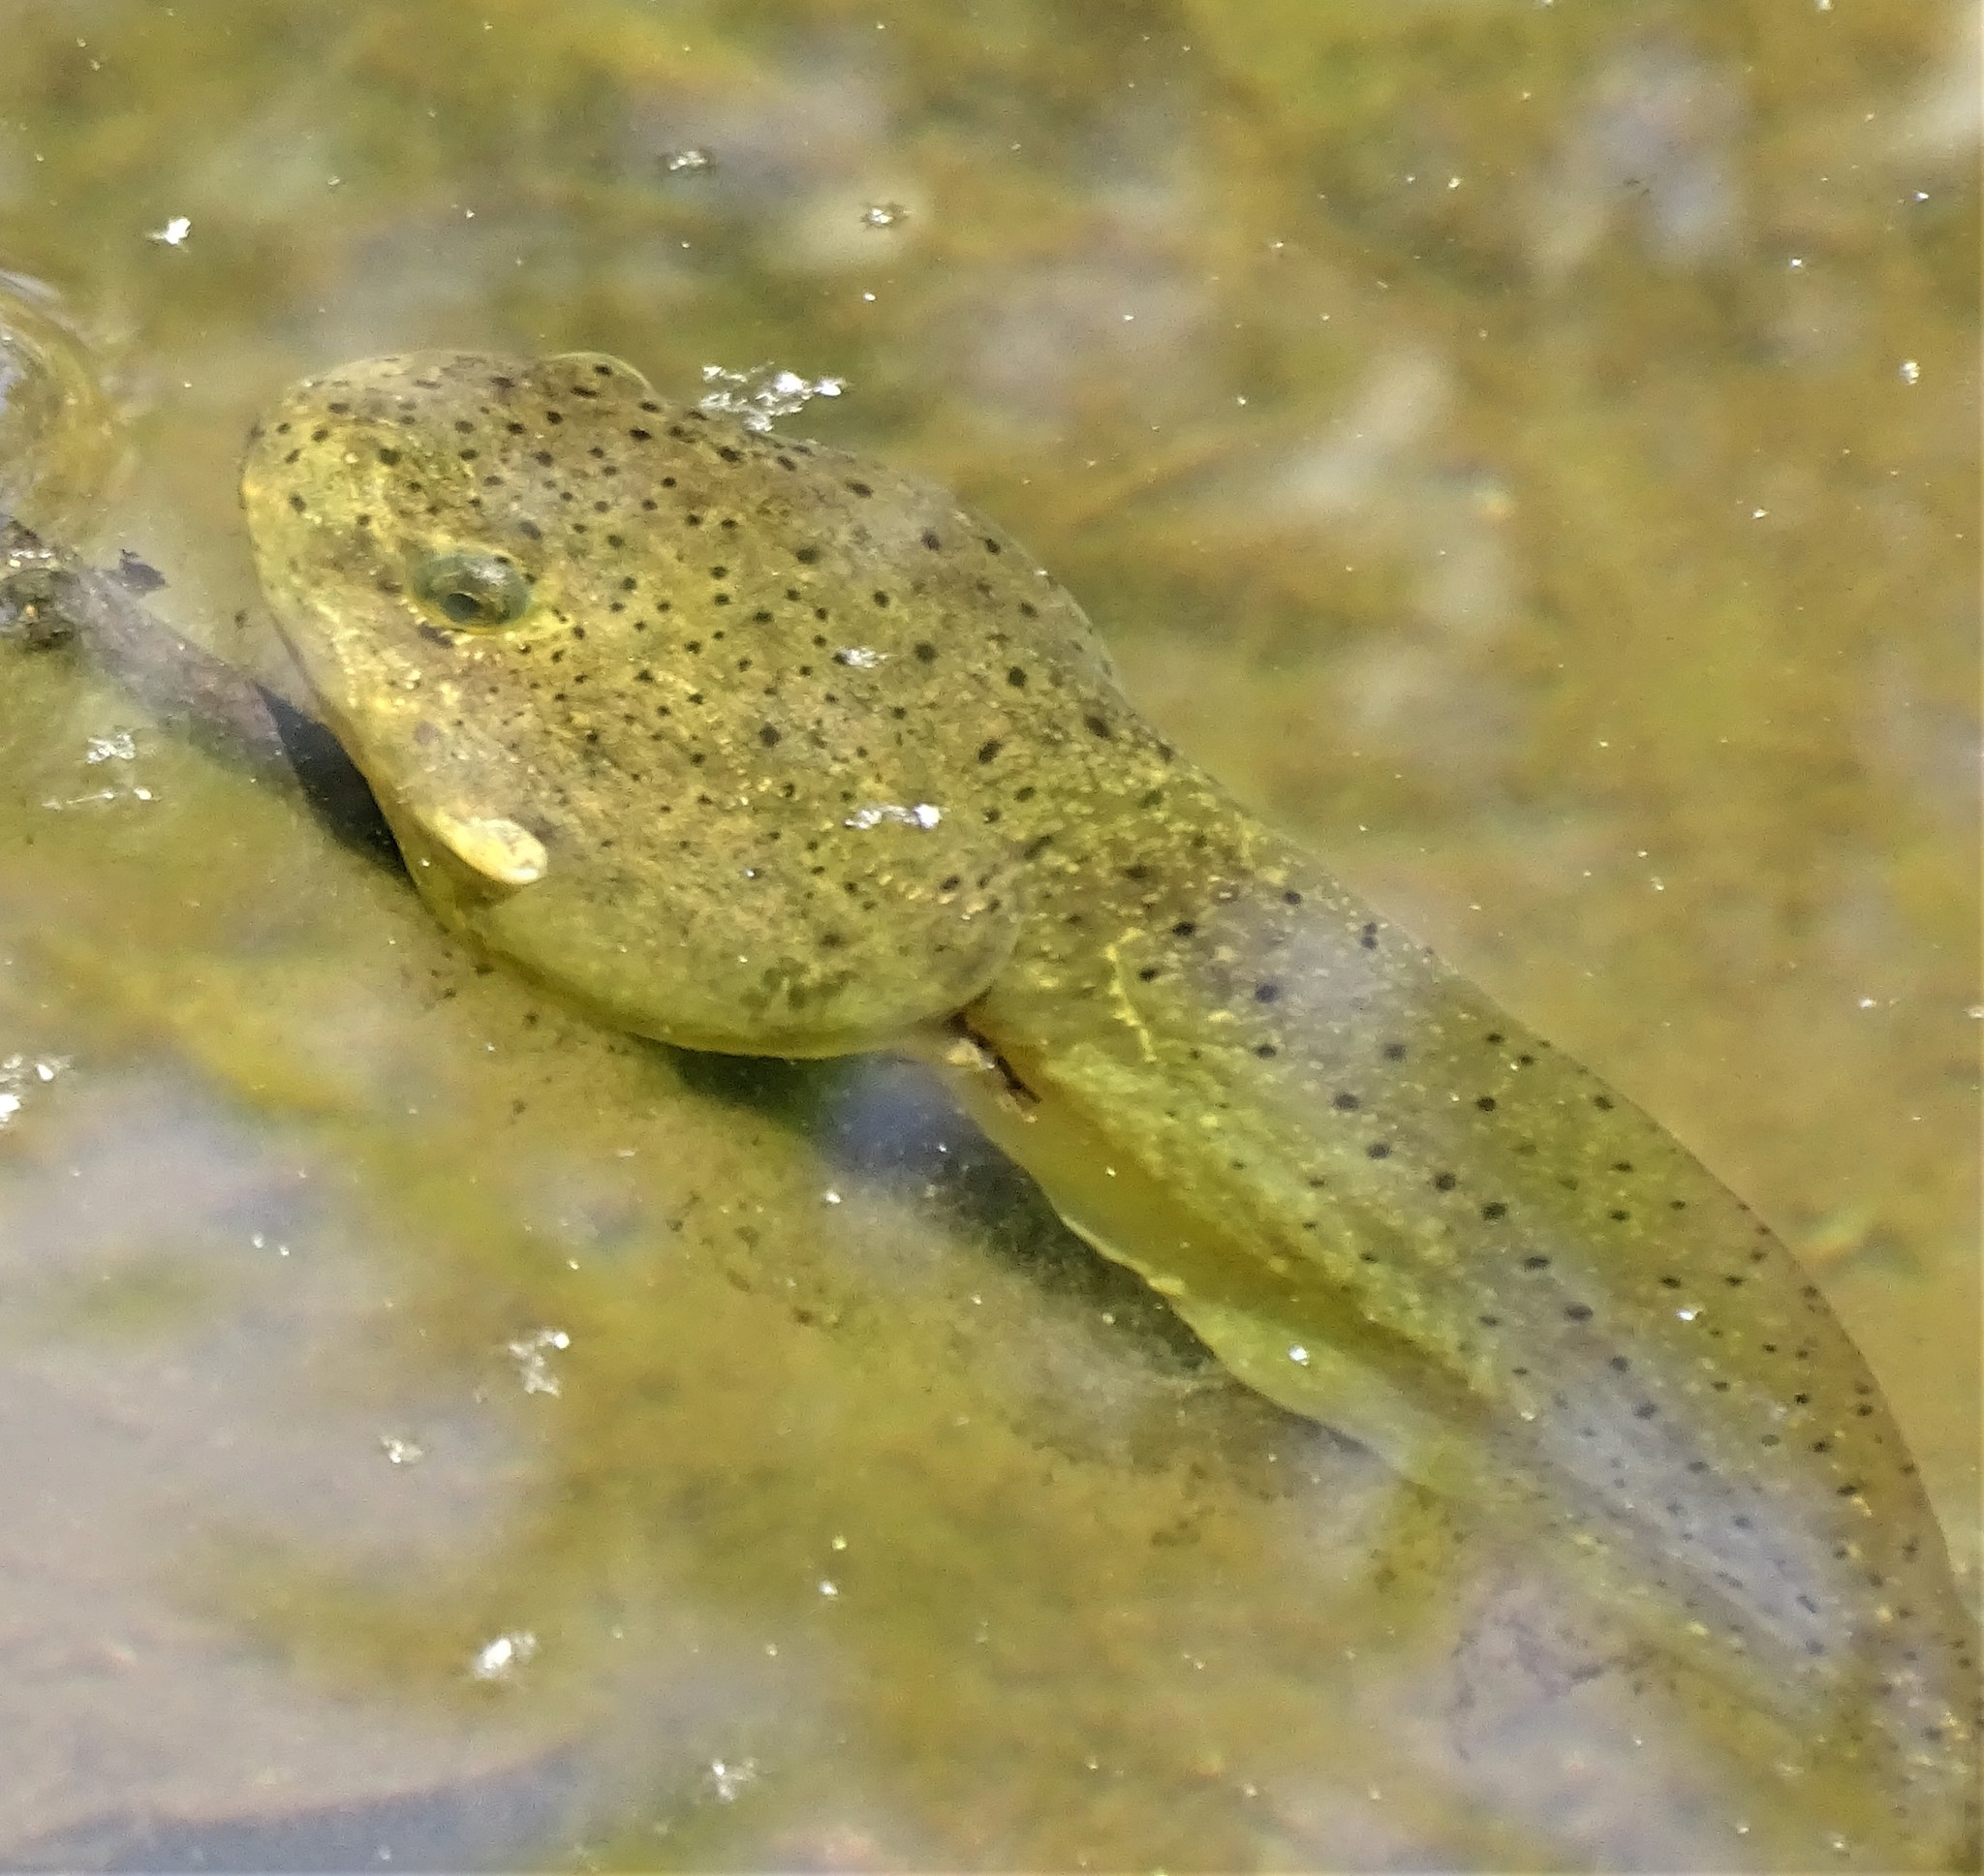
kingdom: Animalia
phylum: Chordata
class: Amphibia
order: Anura
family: Ranidae
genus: Lithobates
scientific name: Lithobates catesbeianus
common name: American bullfrog
